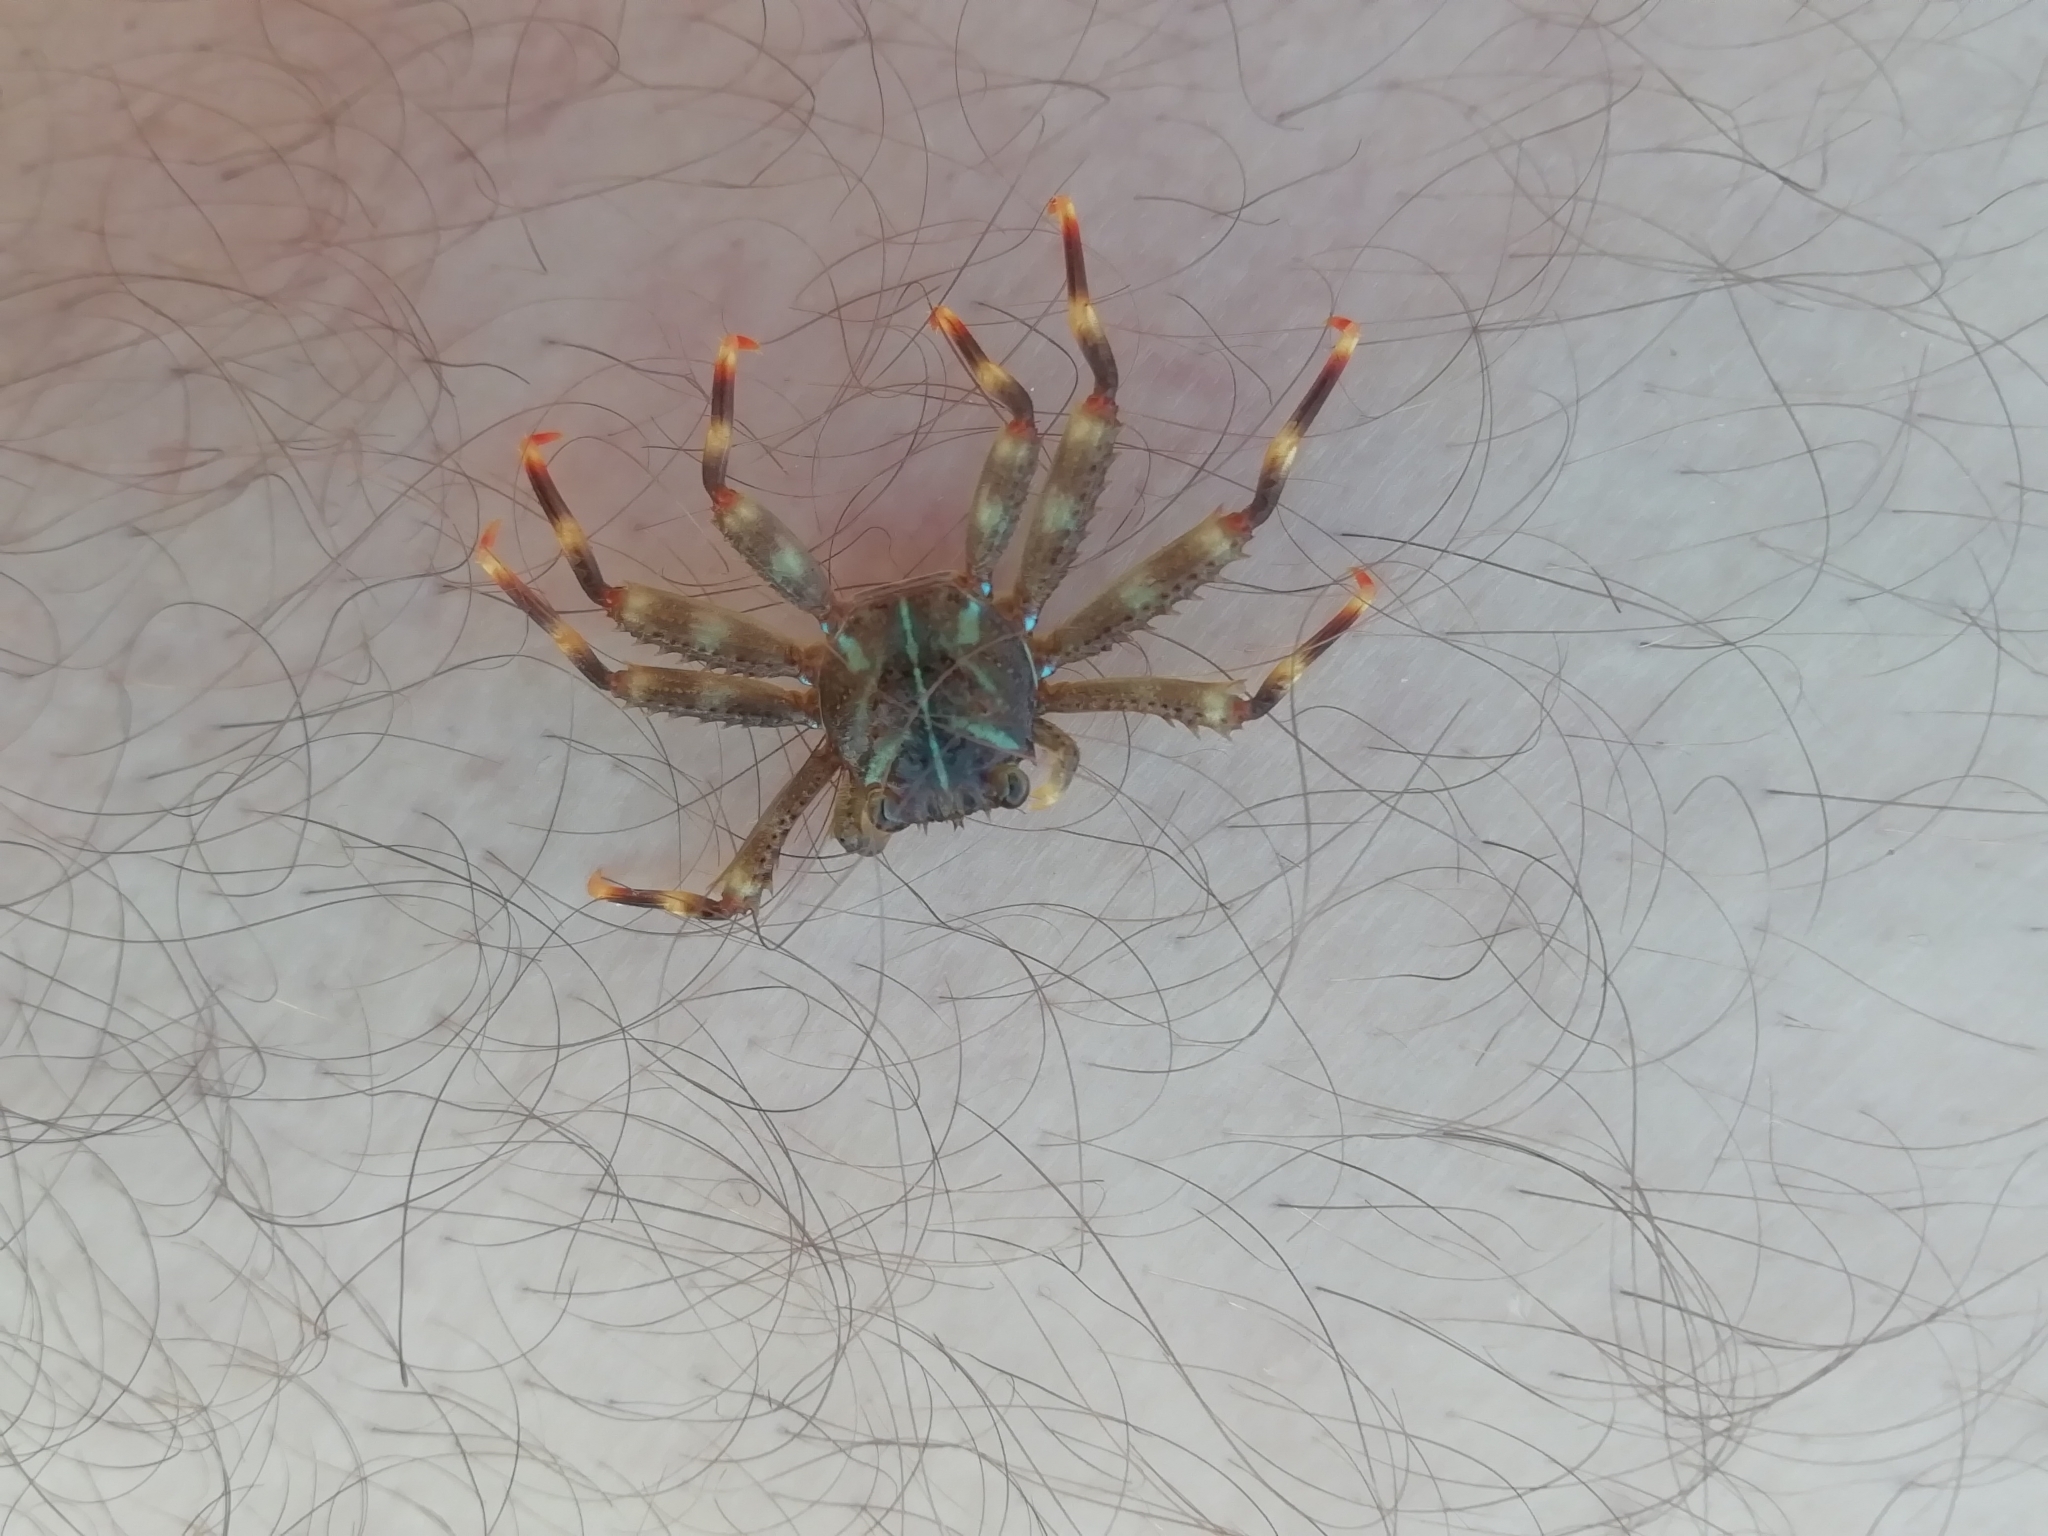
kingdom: Animalia
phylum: Arthropoda
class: Malacostraca
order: Decapoda
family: Percnidae
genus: Percnon
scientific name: Percnon gibbesi
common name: Nimble spray crab
